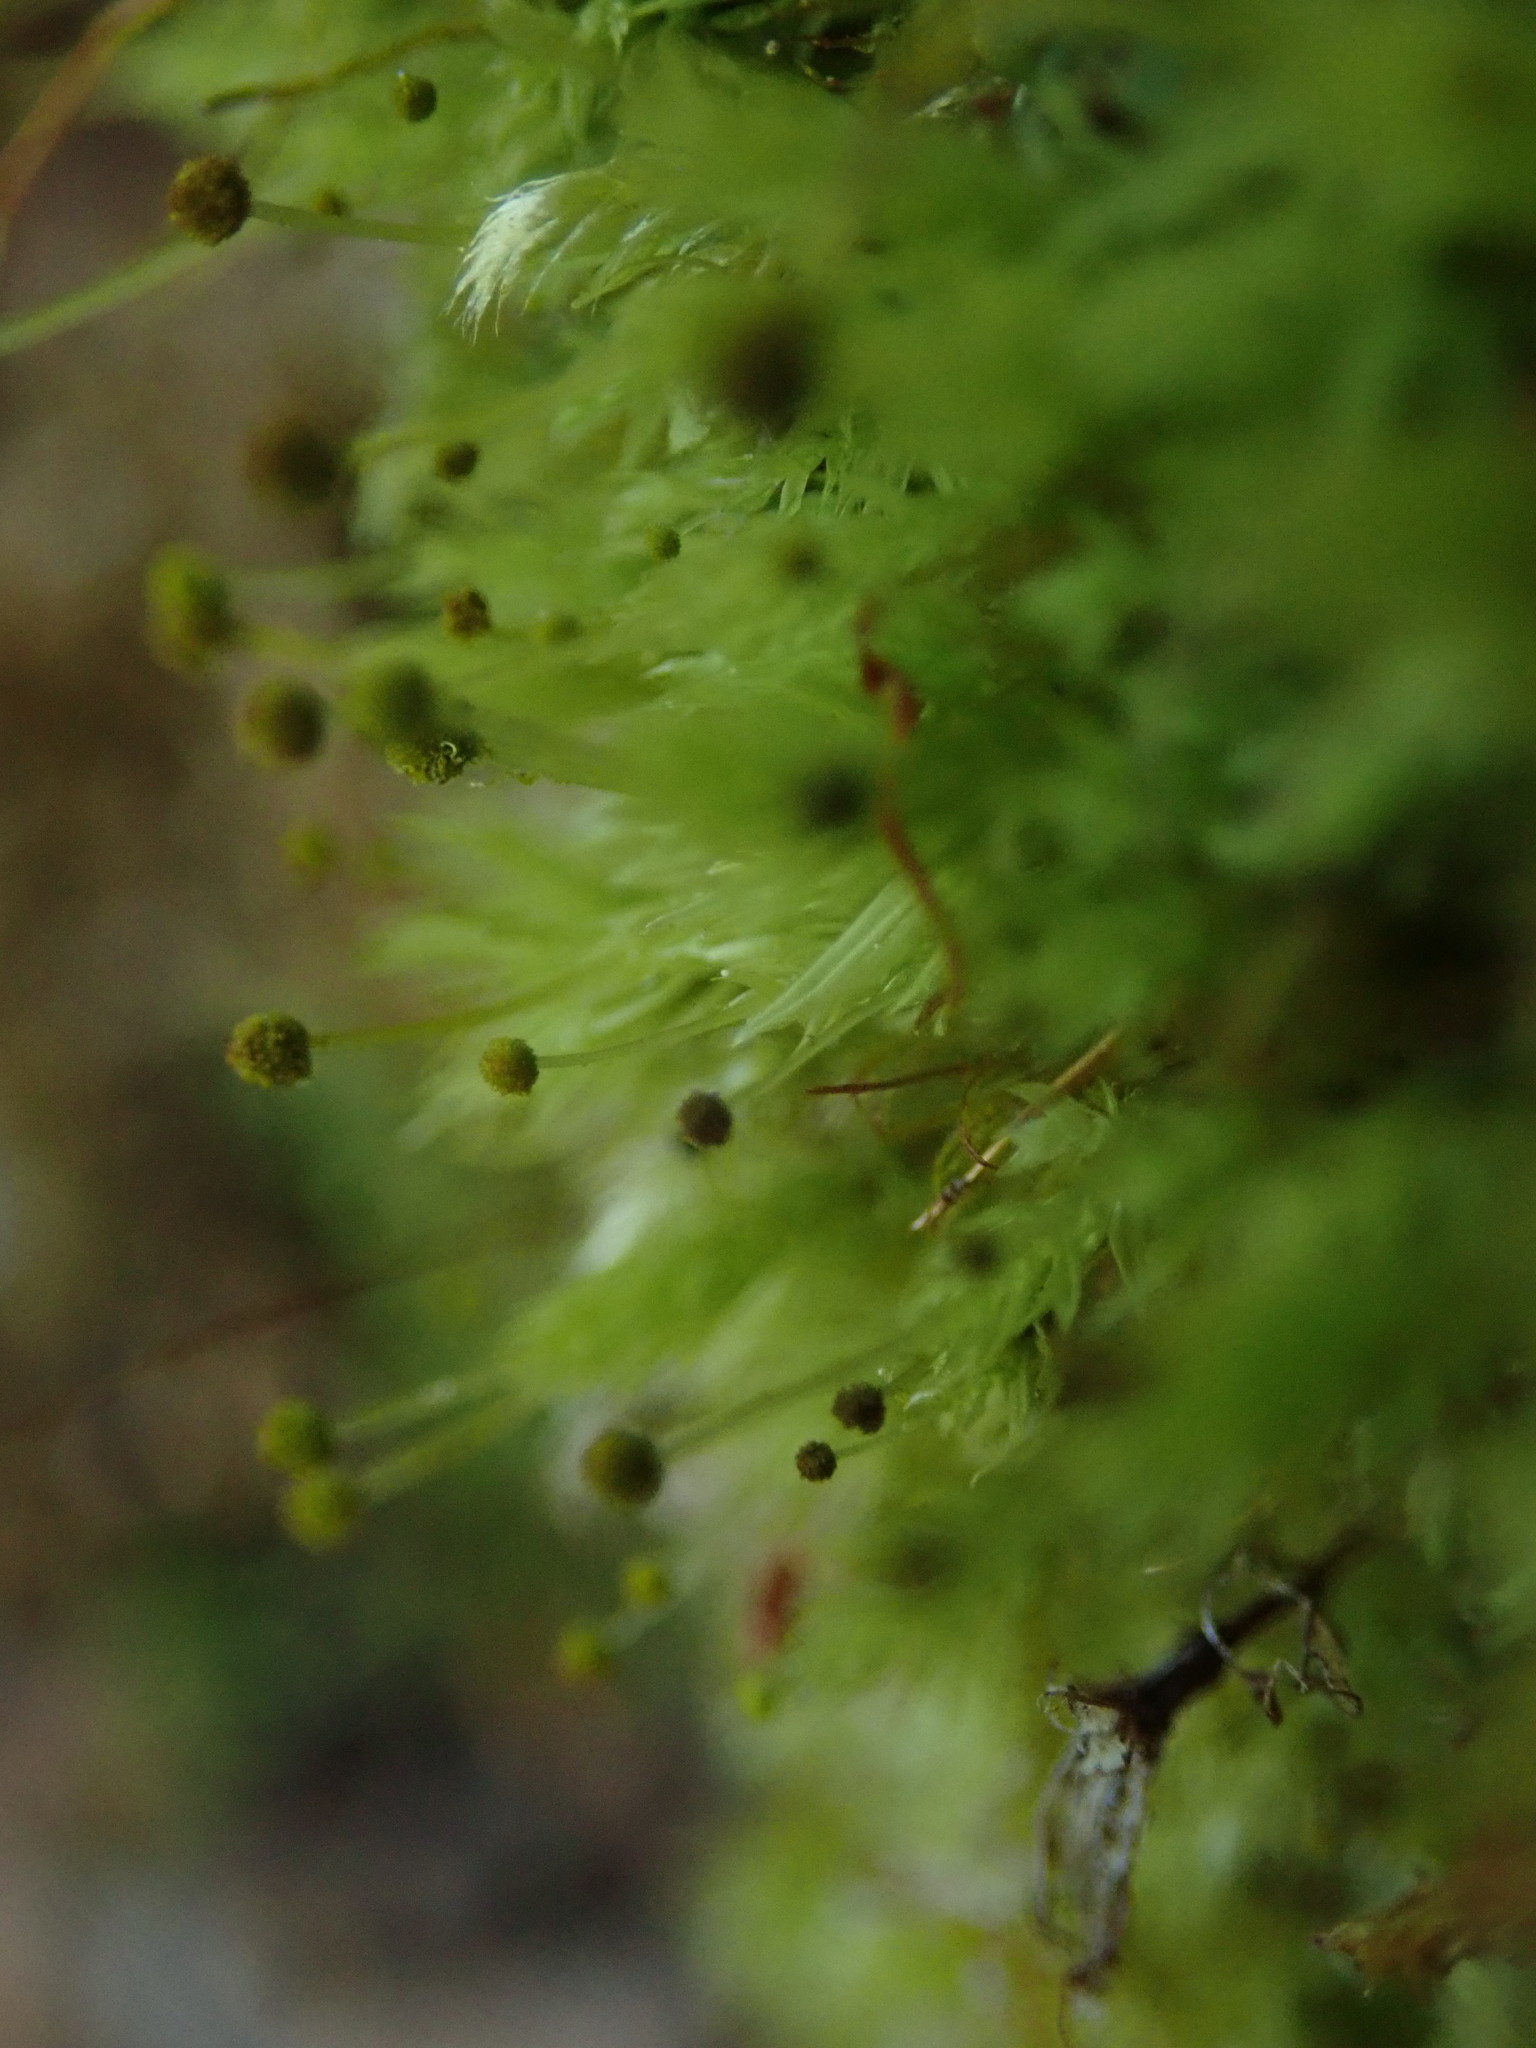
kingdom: Plantae
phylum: Bryophyta
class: Bryopsida
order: Aulacomniales
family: Aulacomniaceae
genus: Aulacomnium
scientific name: Aulacomnium androgynum
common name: Little groove moss
